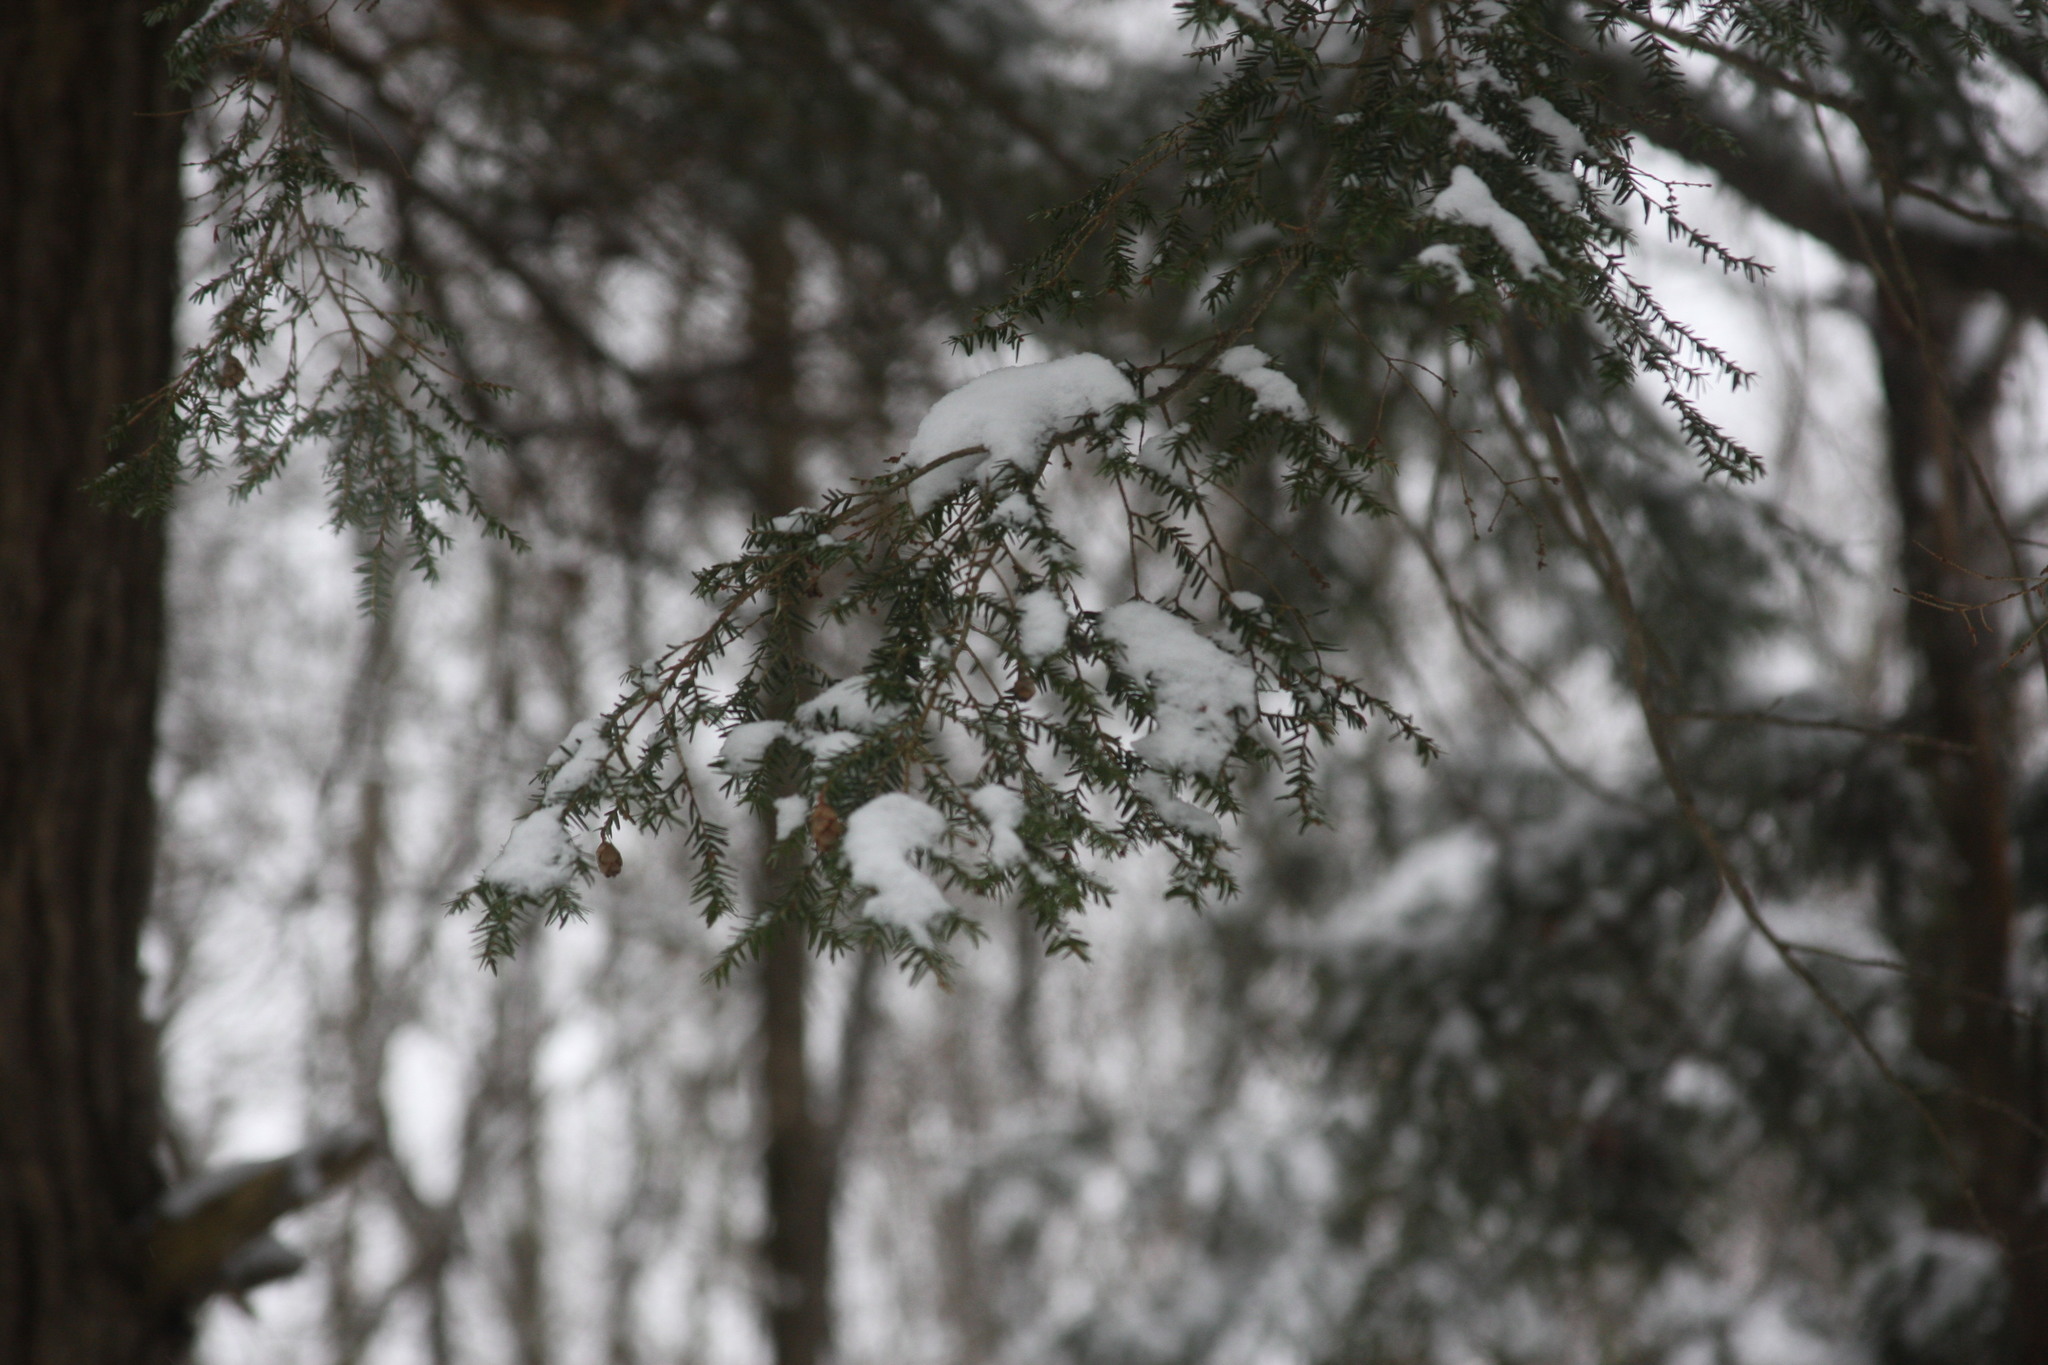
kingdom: Plantae
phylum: Tracheophyta
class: Pinopsida
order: Pinales
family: Pinaceae
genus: Tsuga
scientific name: Tsuga canadensis
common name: Eastern hemlock
